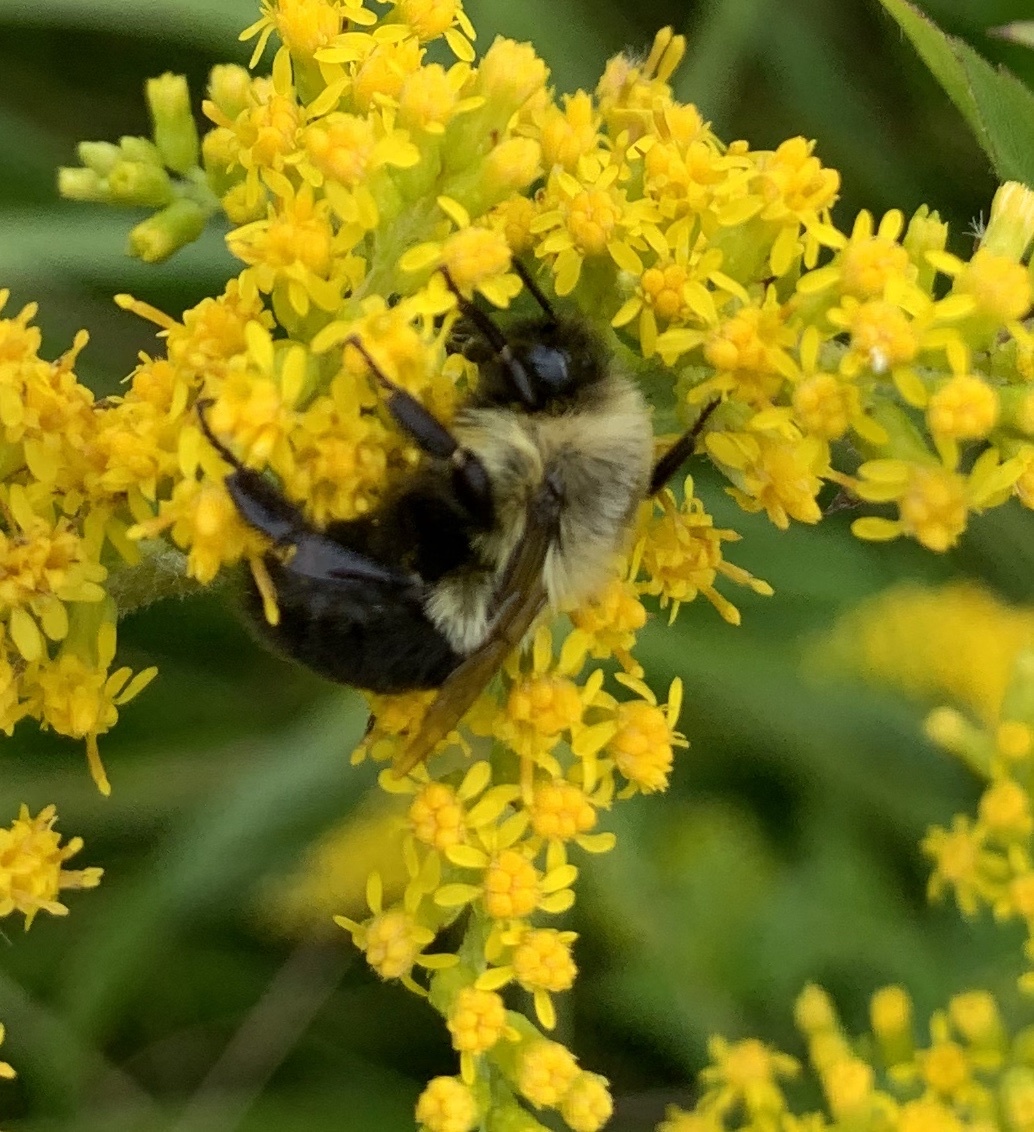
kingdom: Animalia
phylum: Arthropoda
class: Insecta
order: Hymenoptera
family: Apidae
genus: Bombus
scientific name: Bombus impatiens
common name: Common eastern bumble bee
